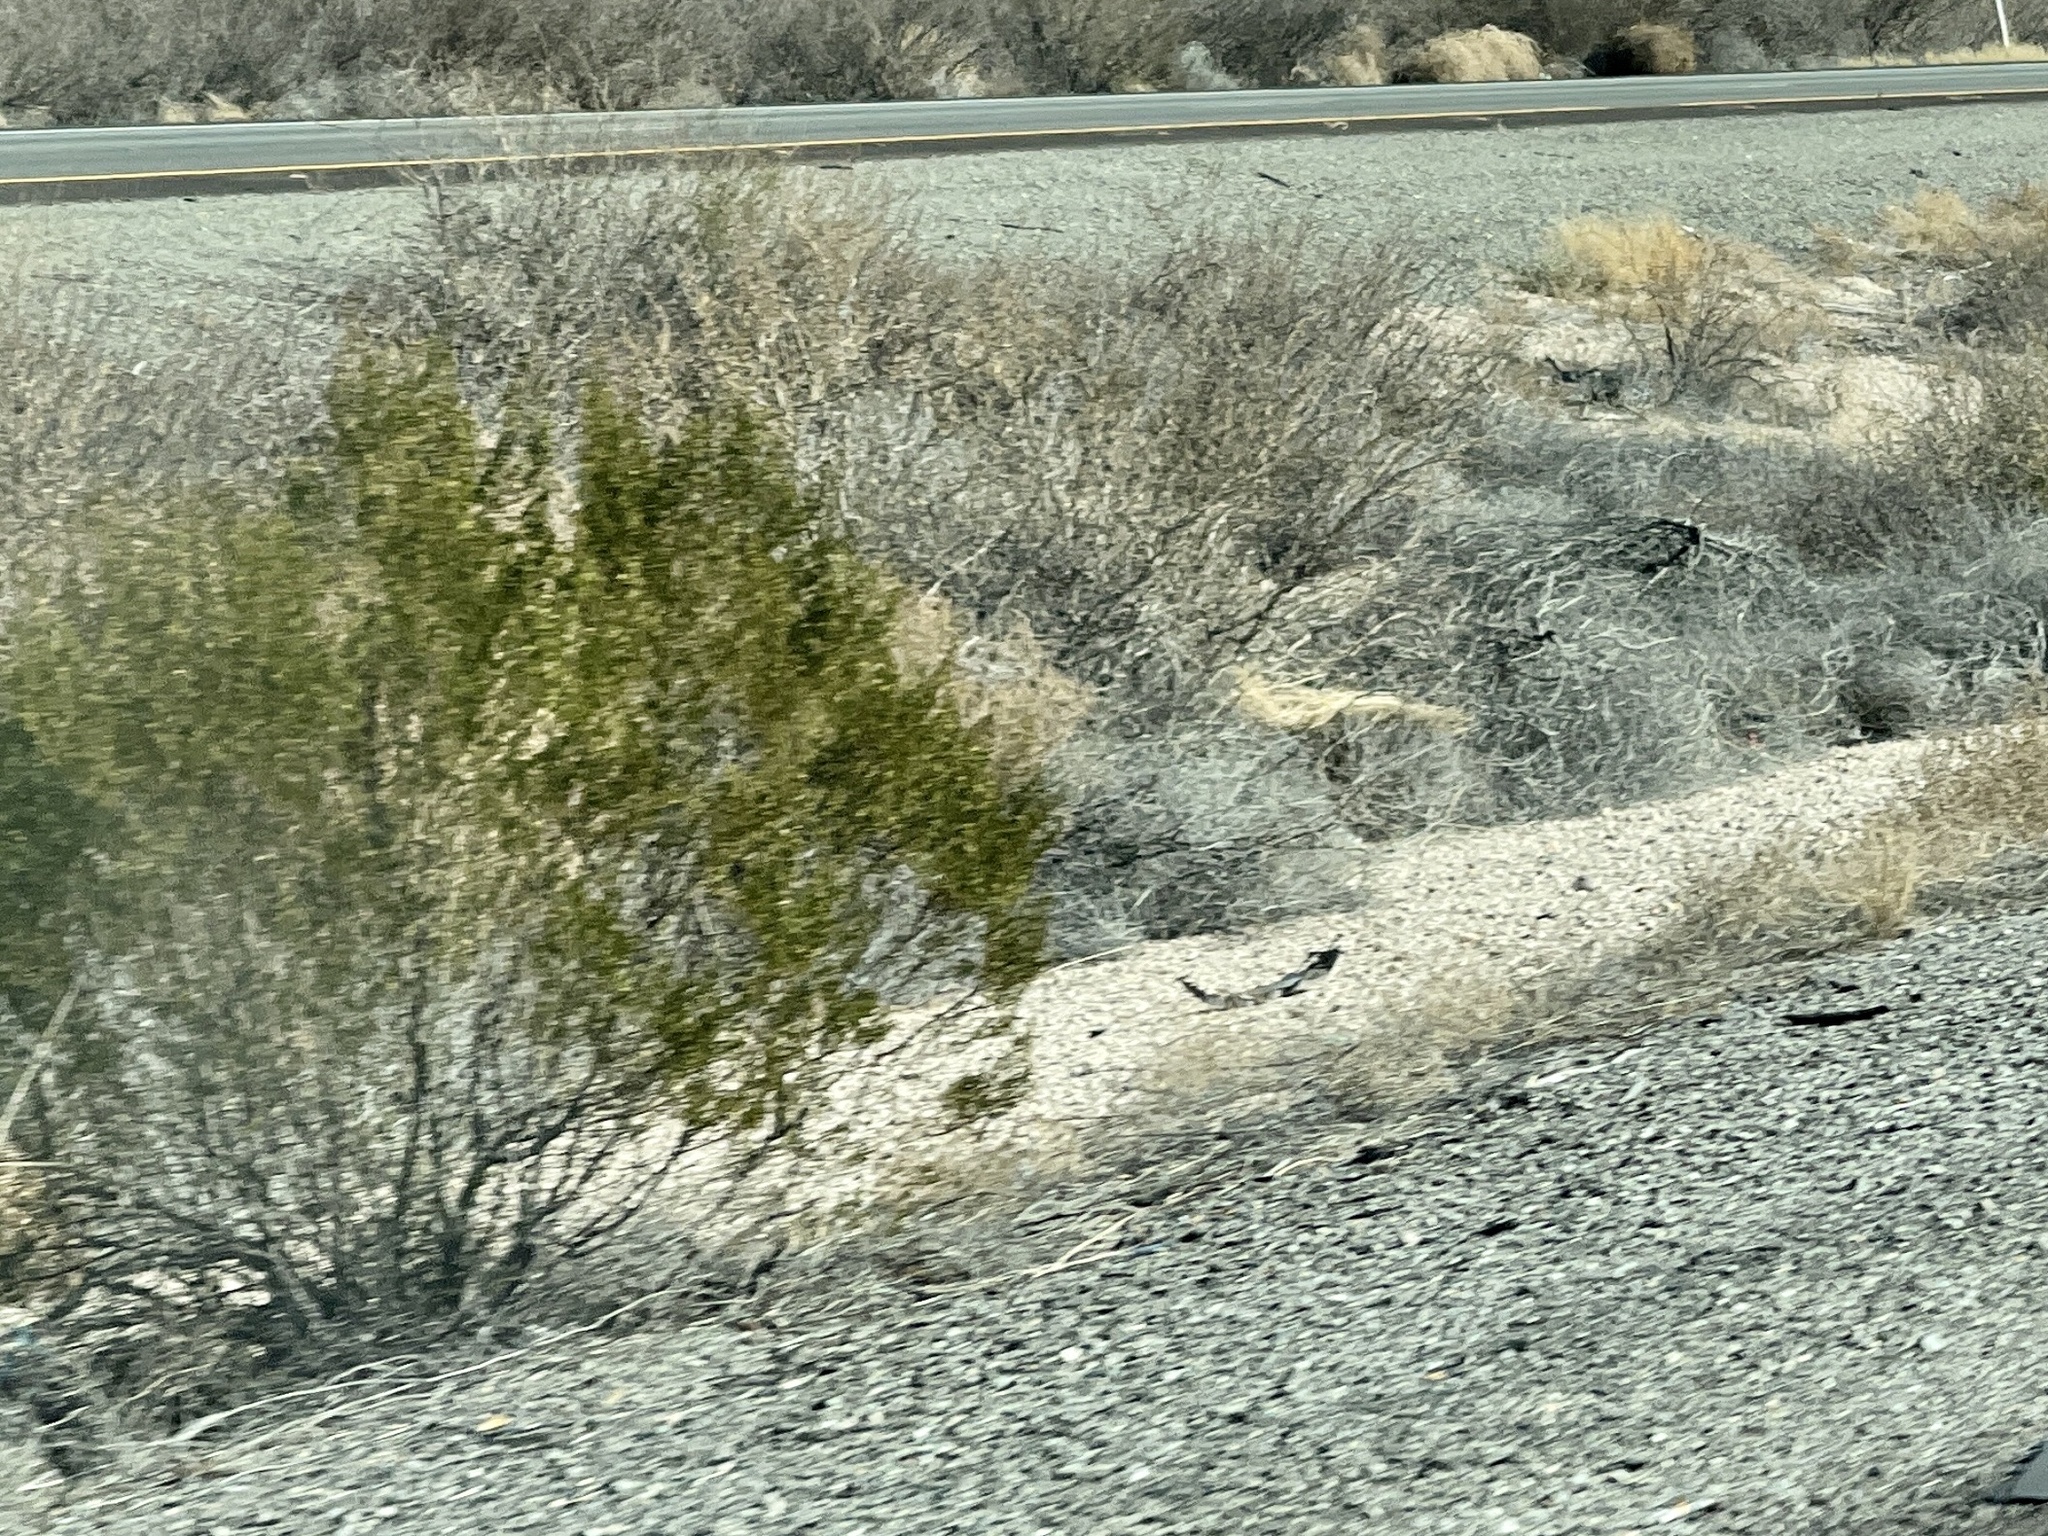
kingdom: Plantae
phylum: Tracheophyta
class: Magnoliopsida
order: Zygophyllales
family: Zygophyllaceae
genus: Larrea
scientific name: Larrea tridentata
